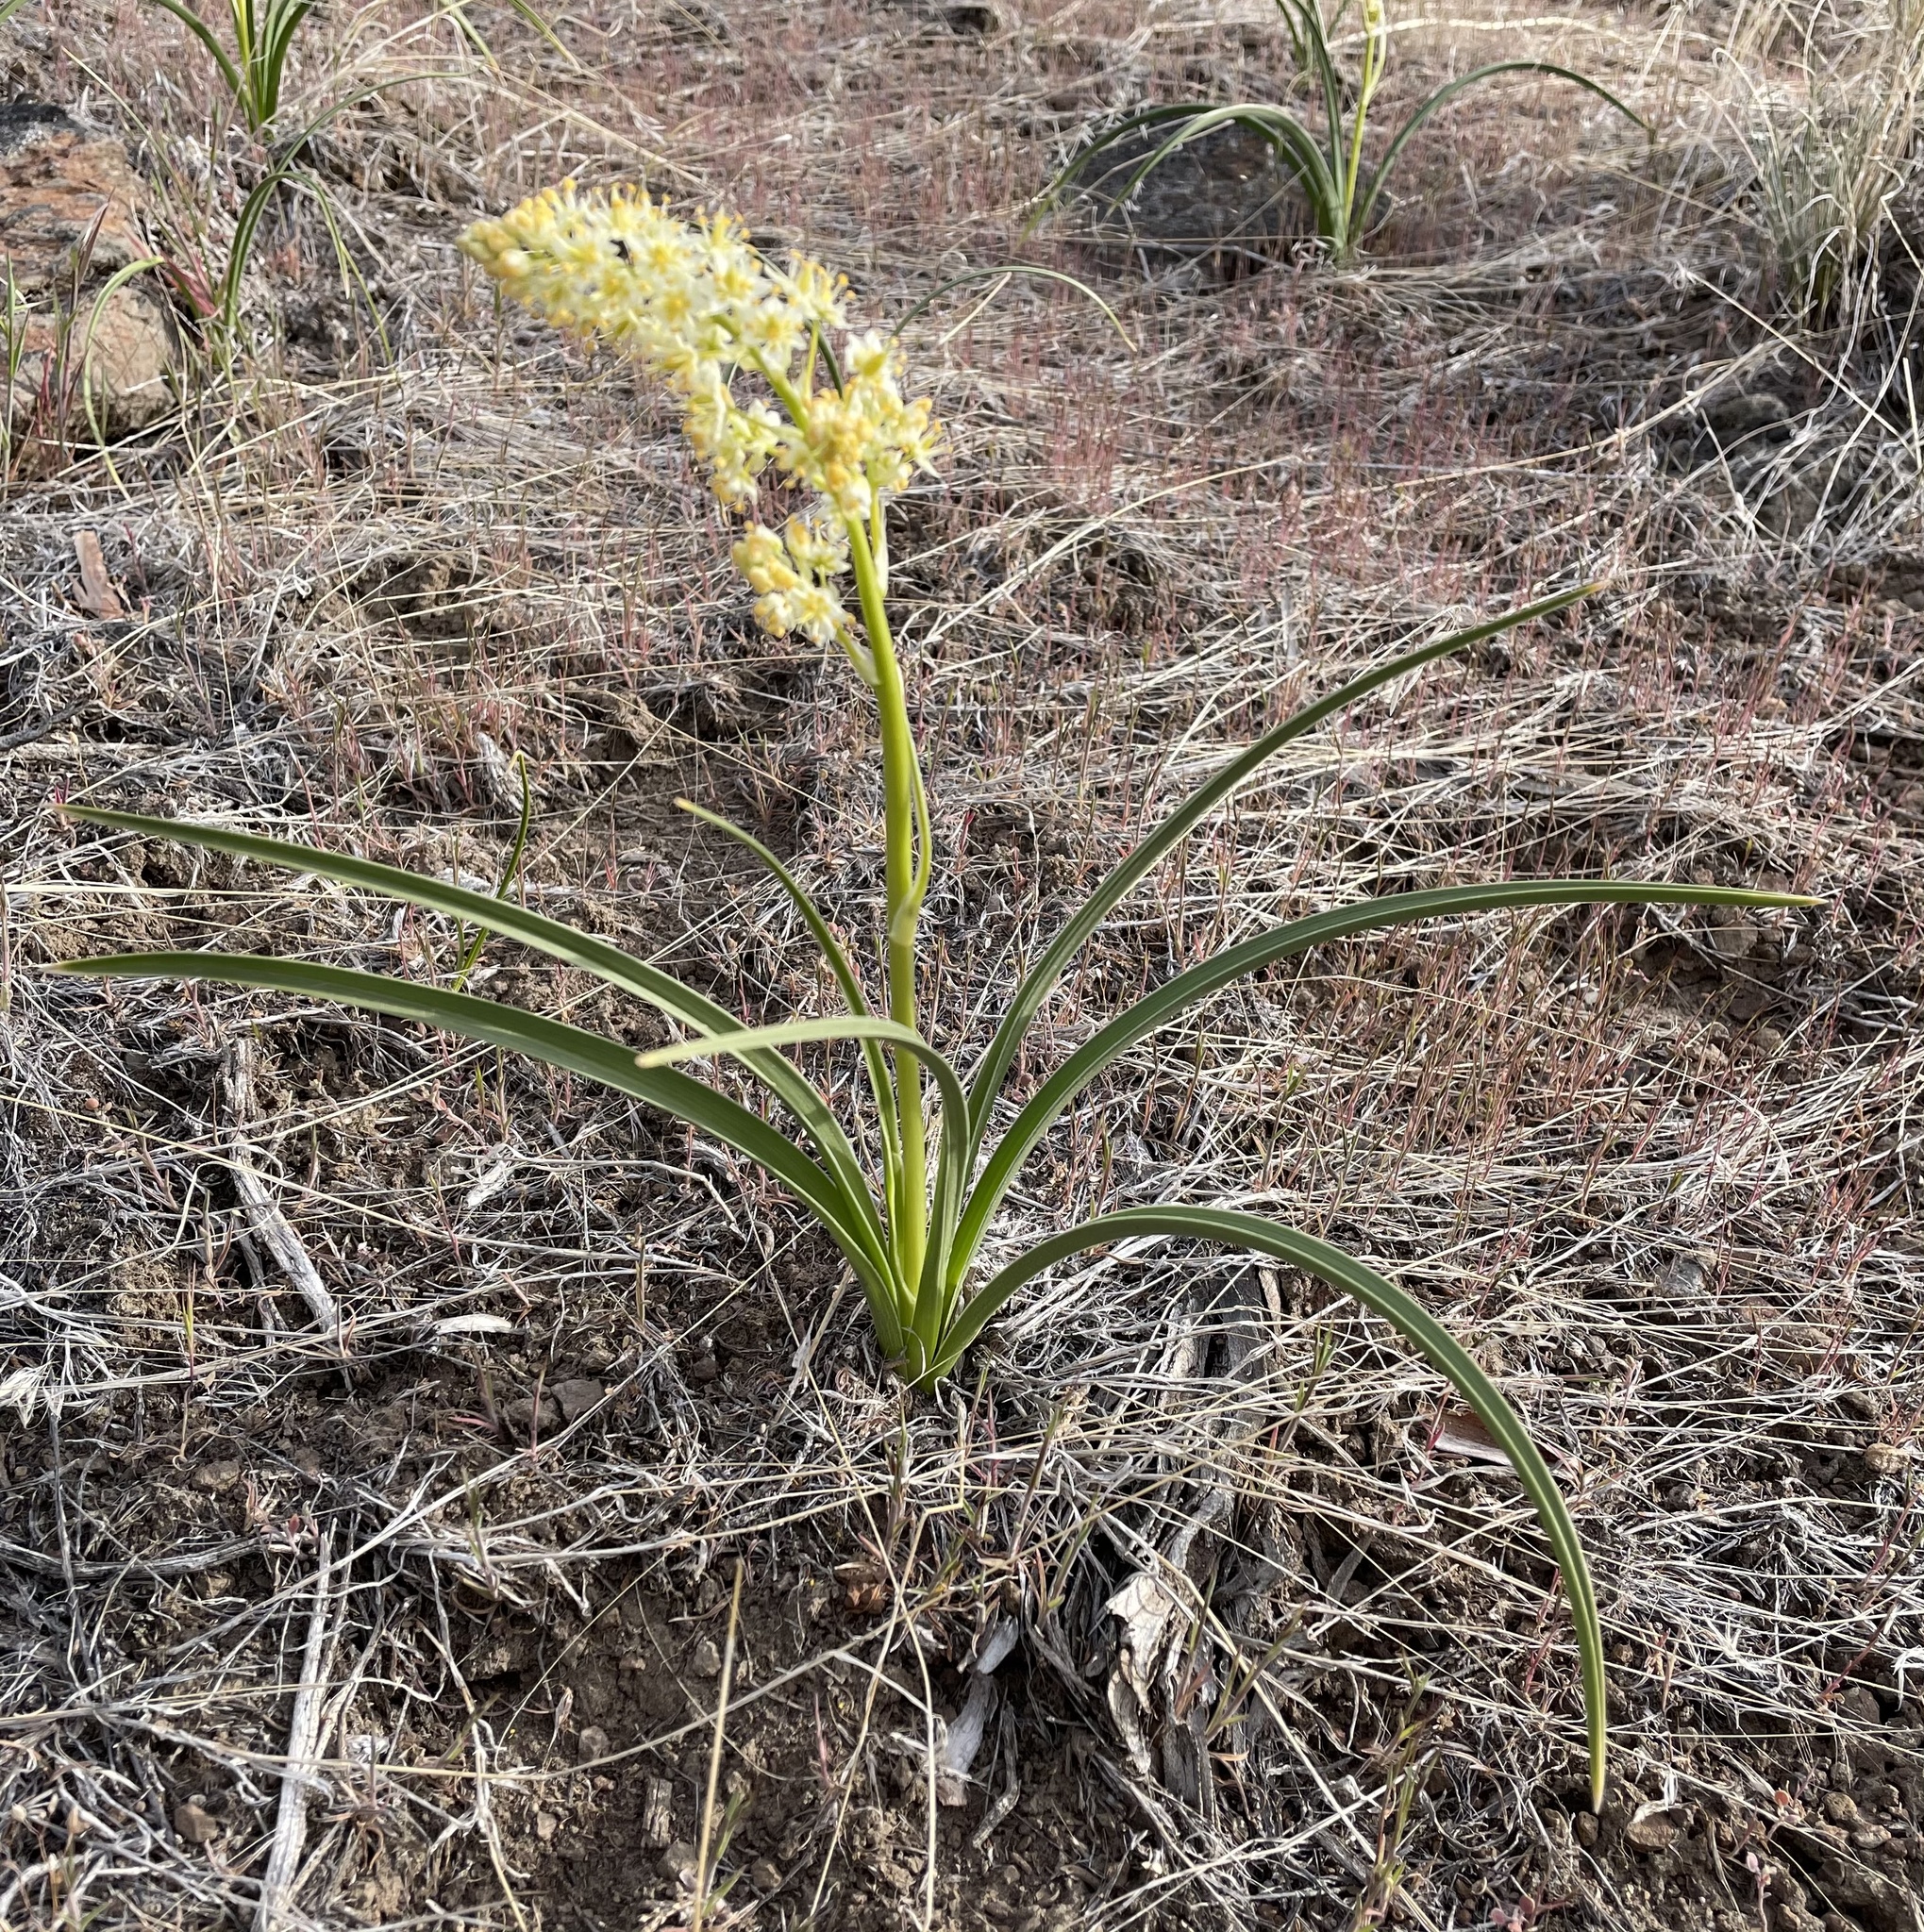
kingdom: Plantae
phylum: Tracheophyta
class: Liliopsida
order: Liliales
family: Melanthiaceae
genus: Toxicoscordion
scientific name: Toxicoscordion paniculatum
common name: Foothill death camas
